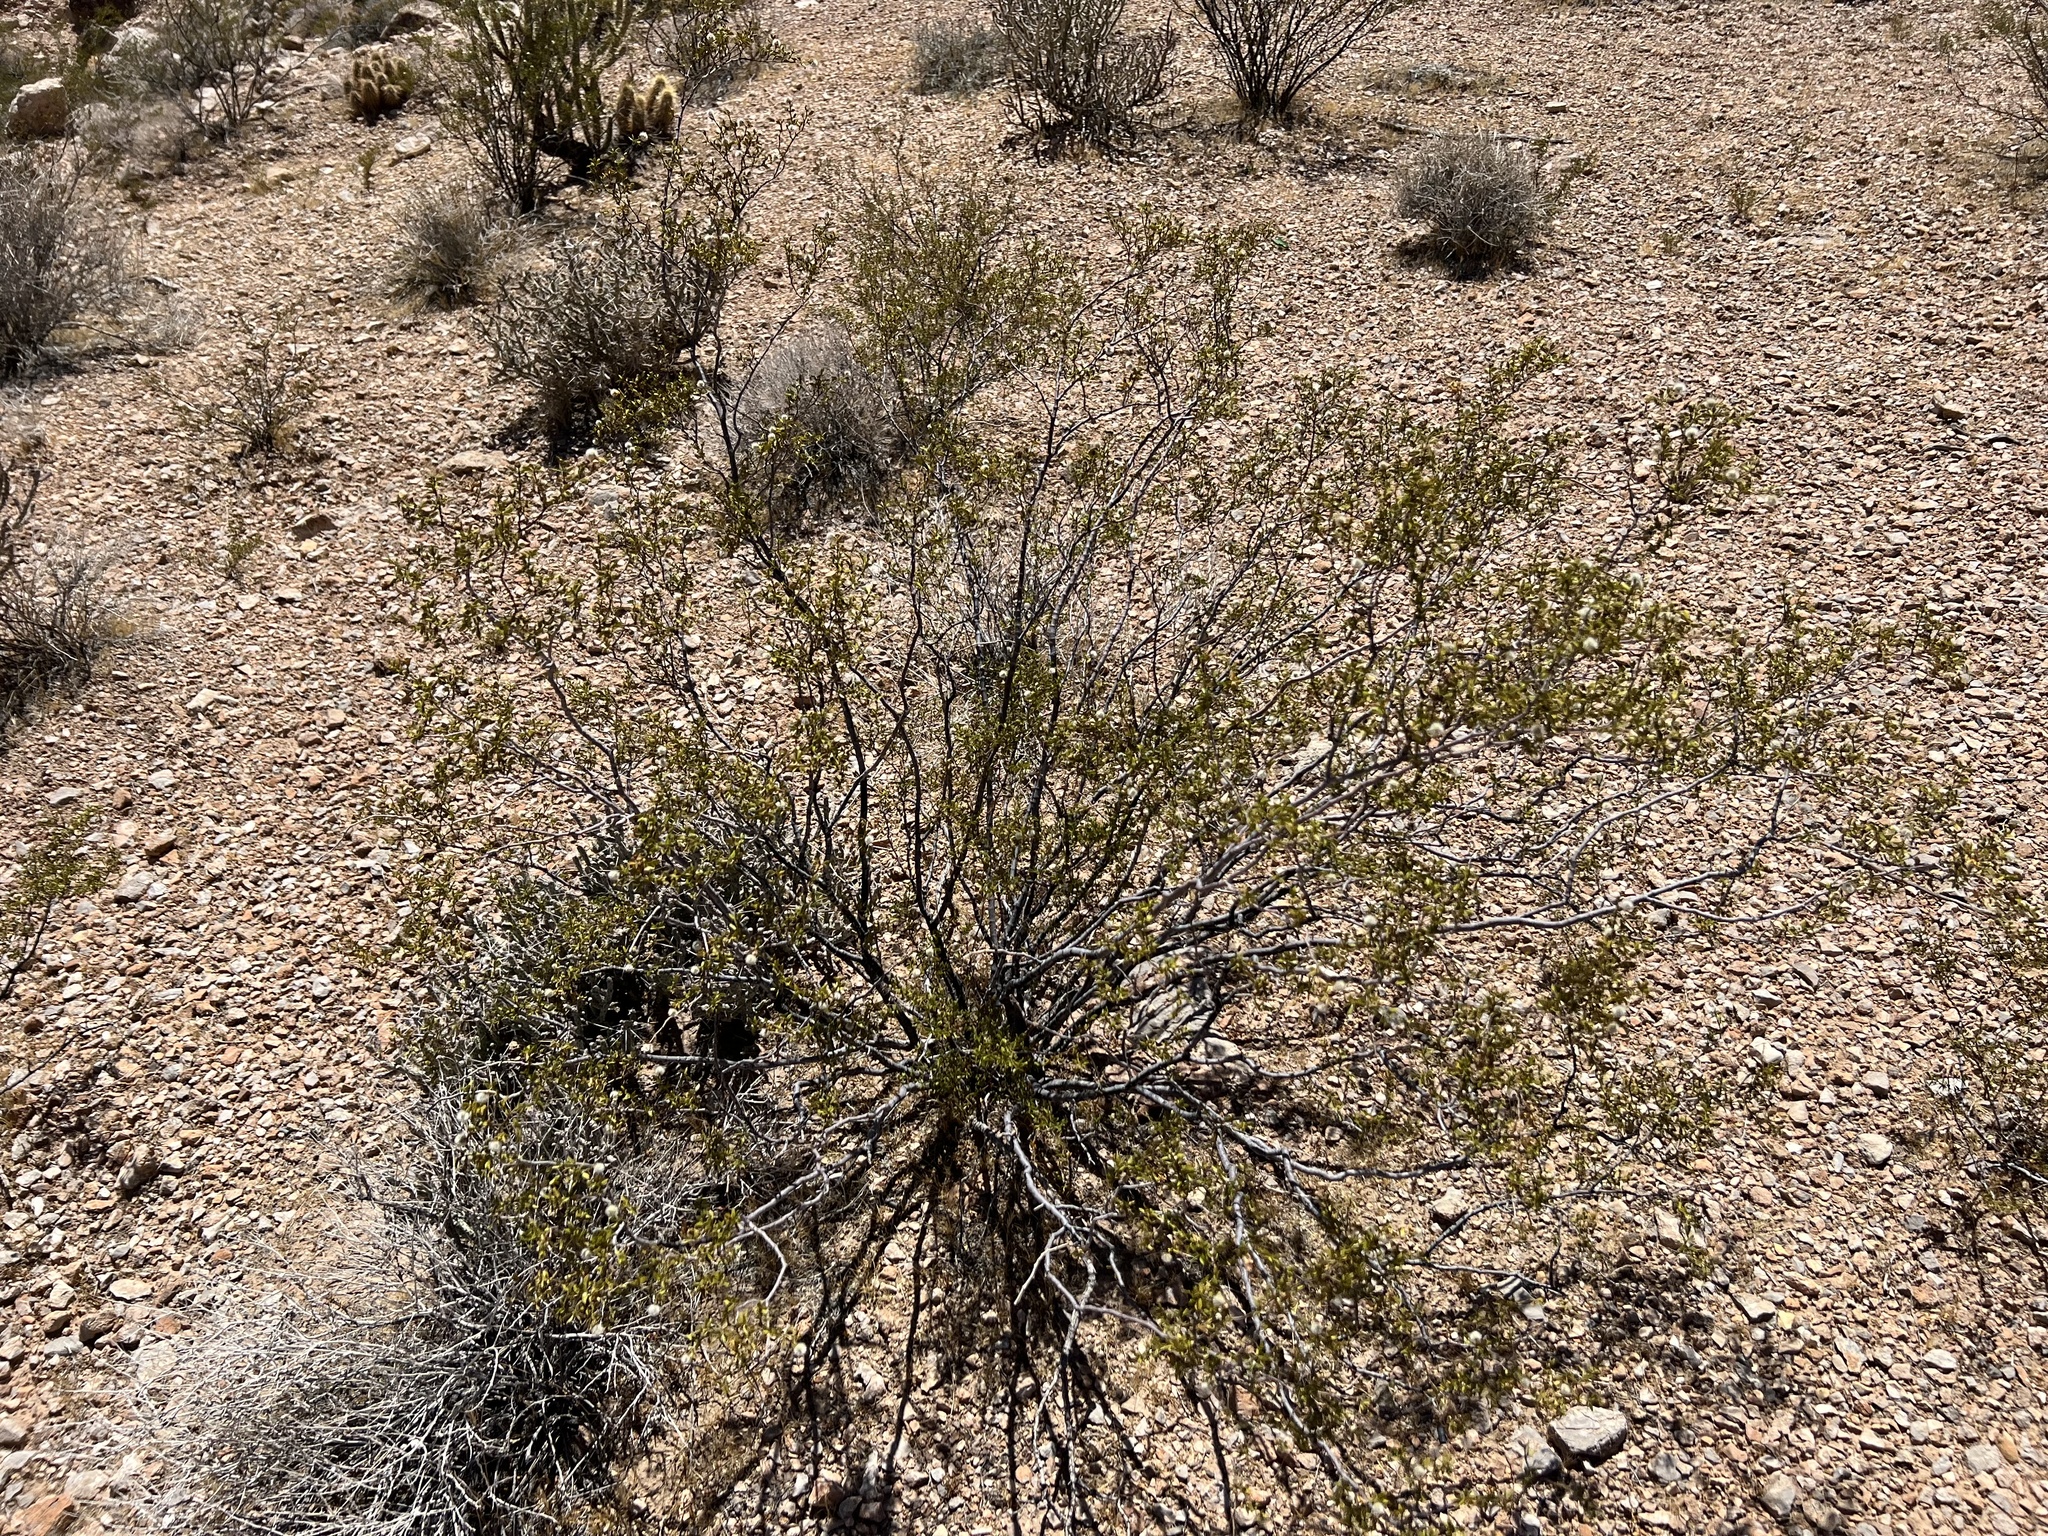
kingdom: Plantae
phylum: Tracheophyta
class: Magnoliopsida
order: Zygophyllales
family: Zygophyllaceae
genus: Larrea
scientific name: Larrea tridentata
